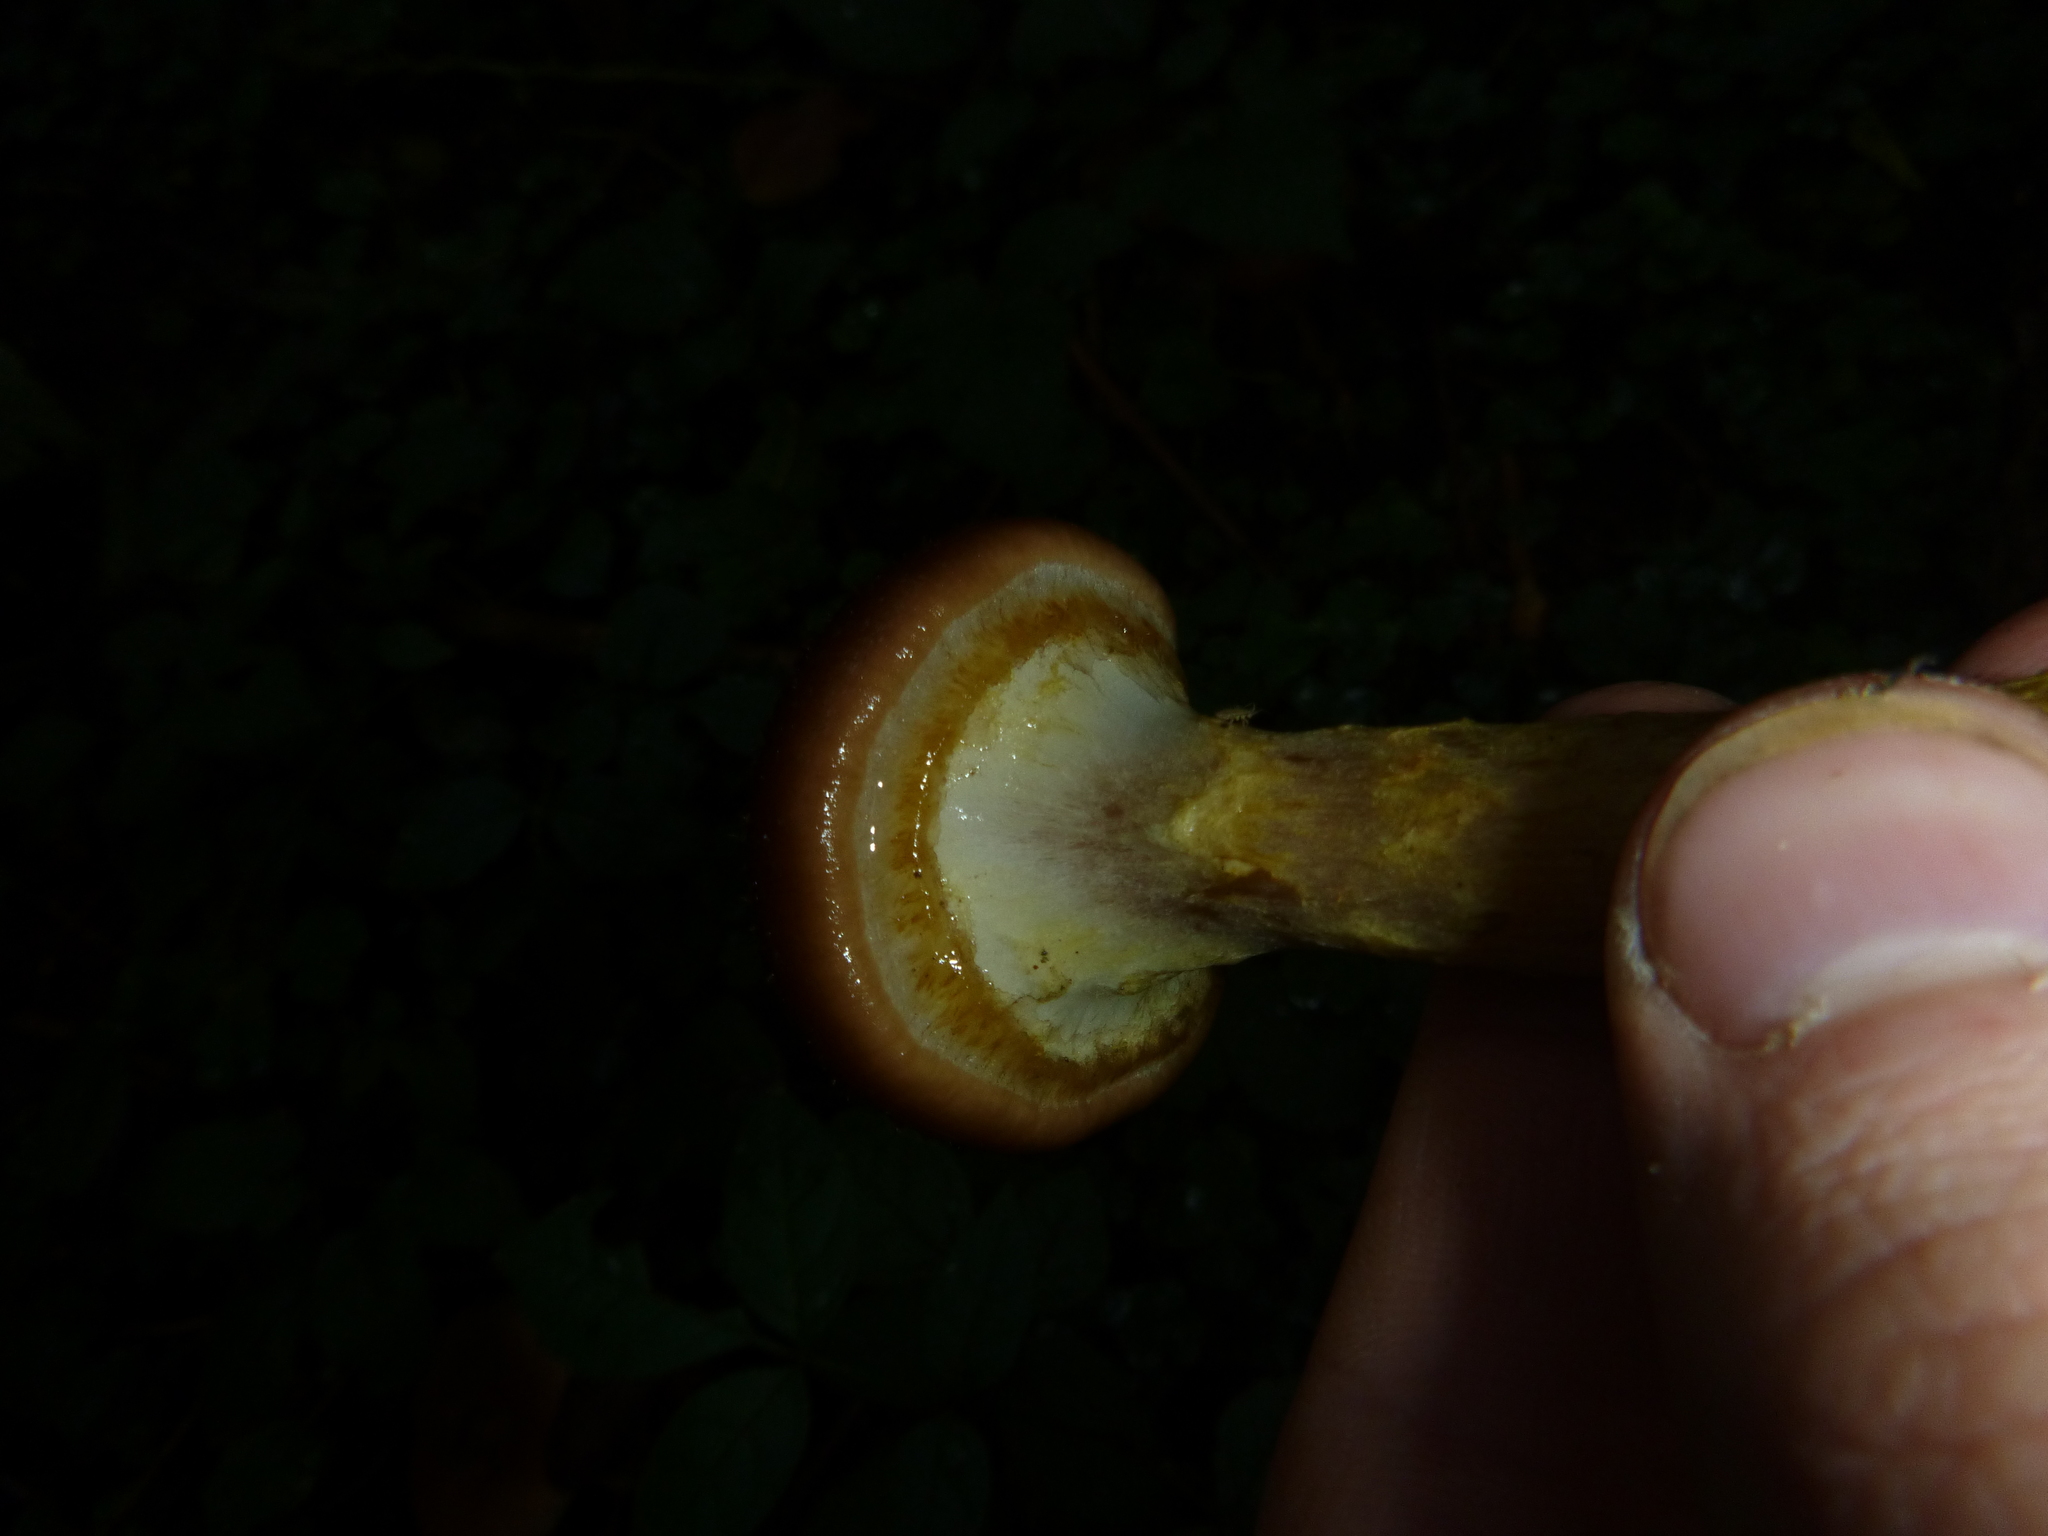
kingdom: Fungi
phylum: Basidiomycota
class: Agaricomycetes
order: Agaricales
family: Physalacriaceae
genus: Armillaria
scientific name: Armillaria gallica
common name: Bulbous honey fungus
